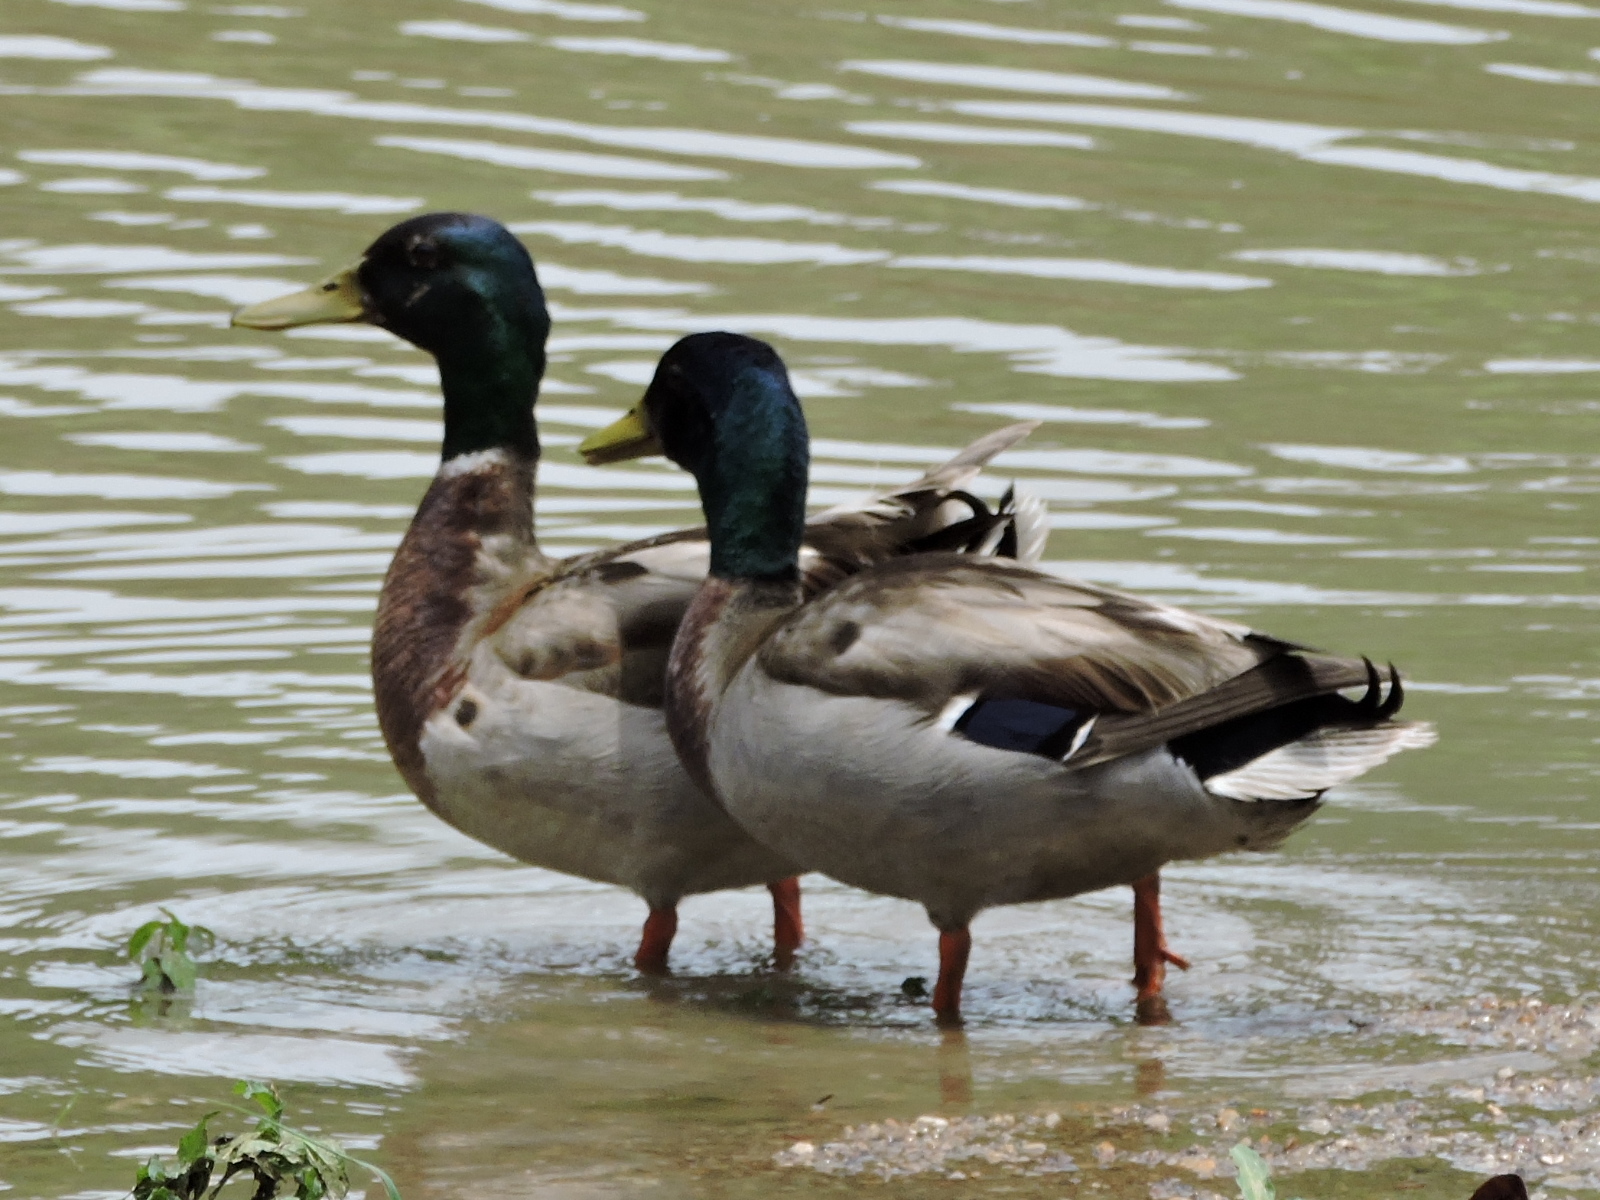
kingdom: Animalia
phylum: Chordata
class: Aves
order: Anseriformes
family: Anatidae
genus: Anas
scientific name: Anas platyrhynchos
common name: Mallard
